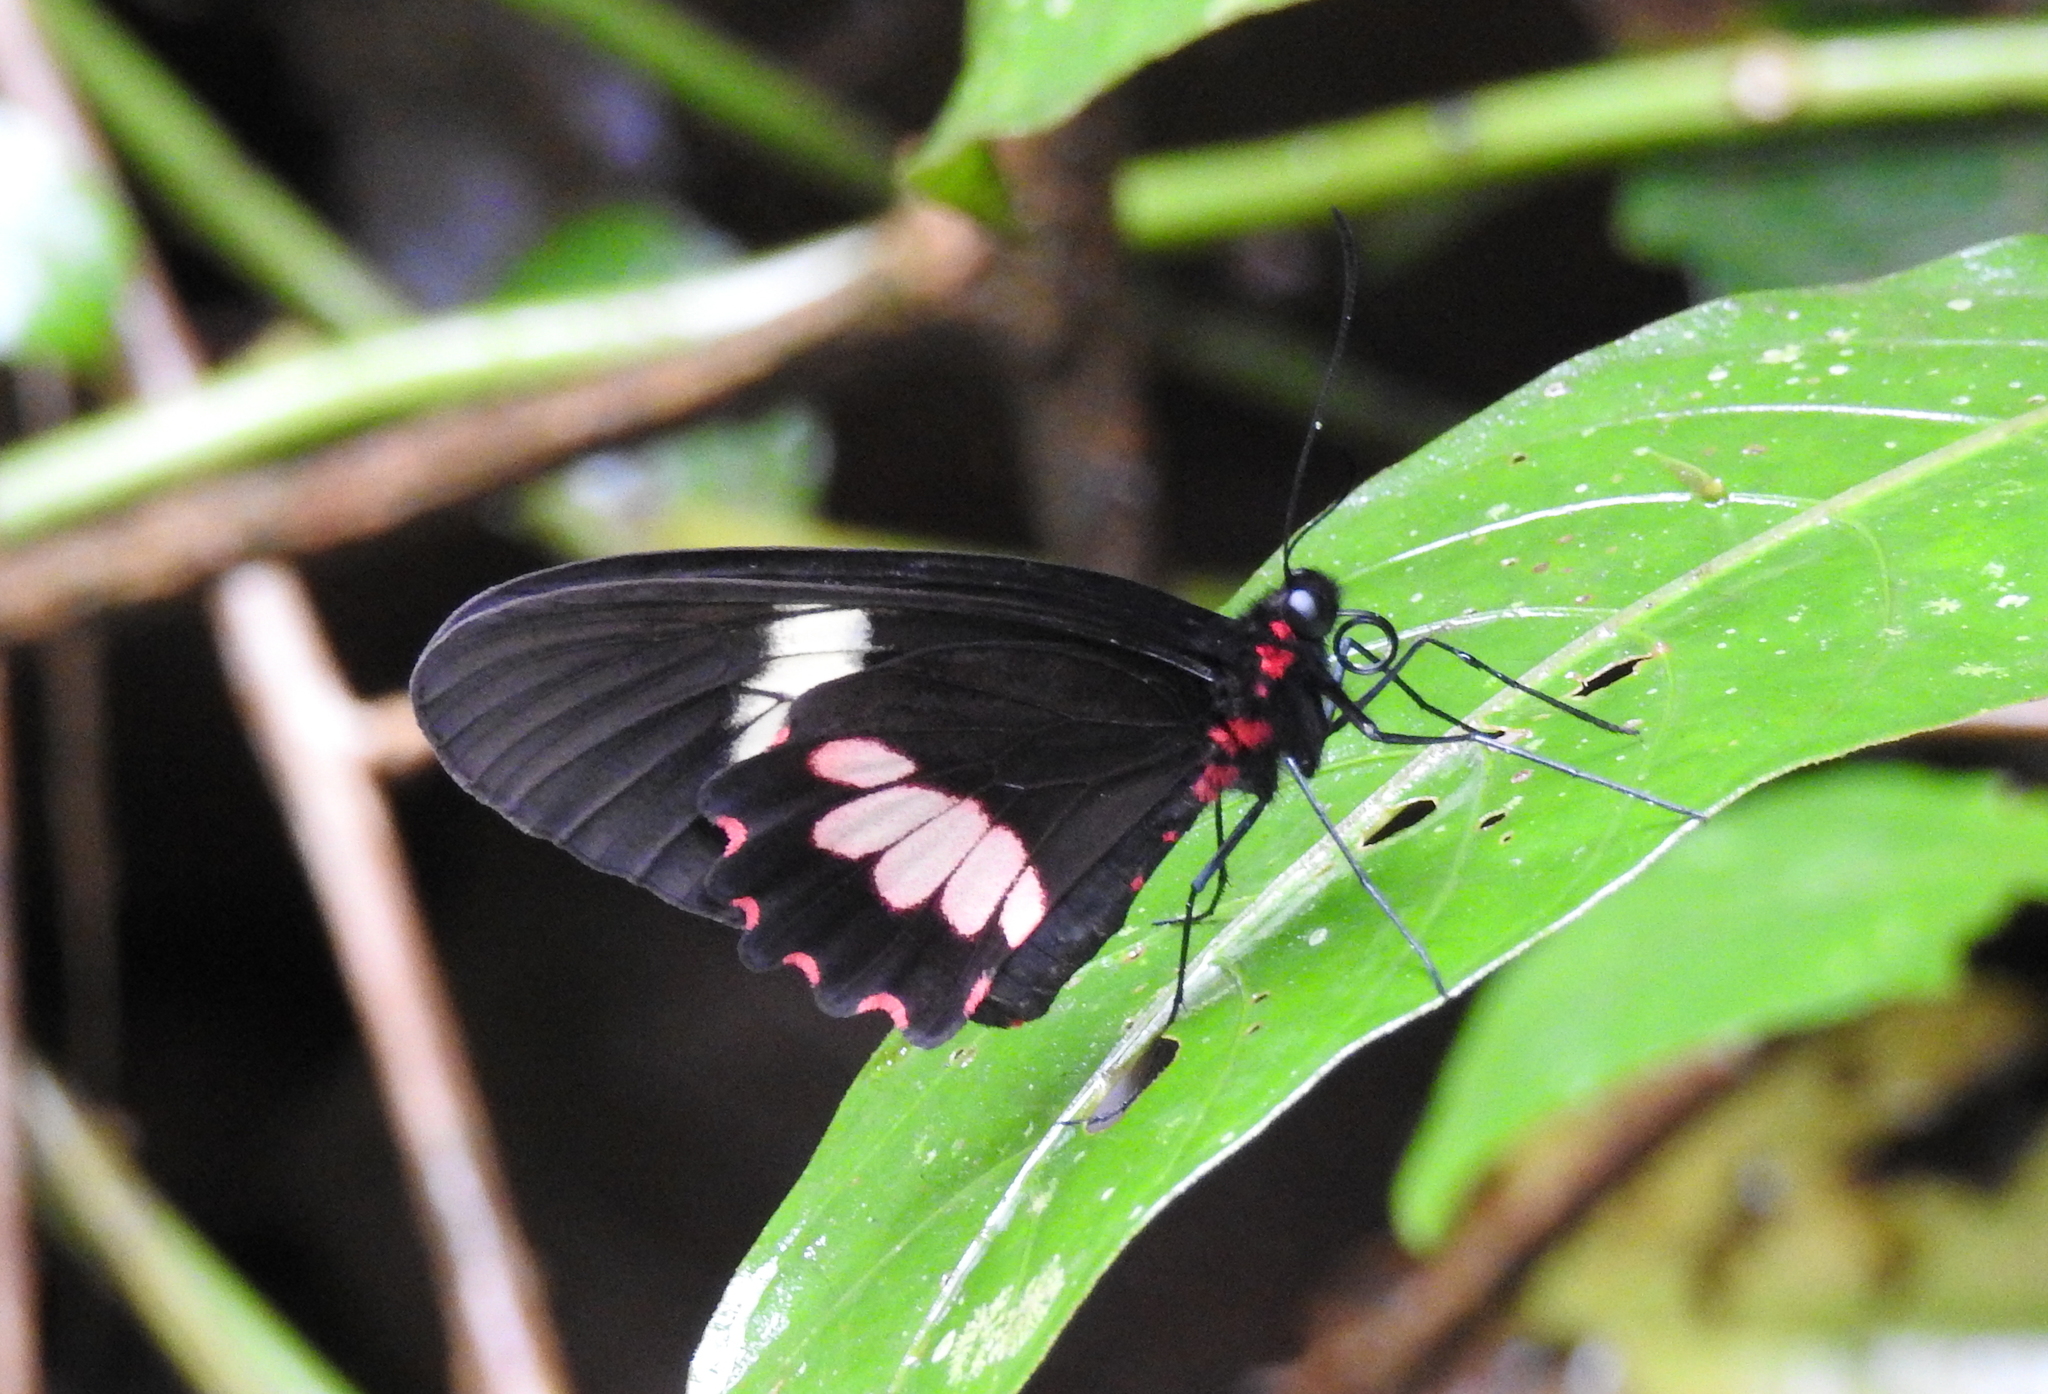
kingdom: Animalia
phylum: Arthropoda
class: Insecta
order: Lepidoptera
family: Papilionidae
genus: Parides
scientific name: Parides eurimedes
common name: True cattleheart
